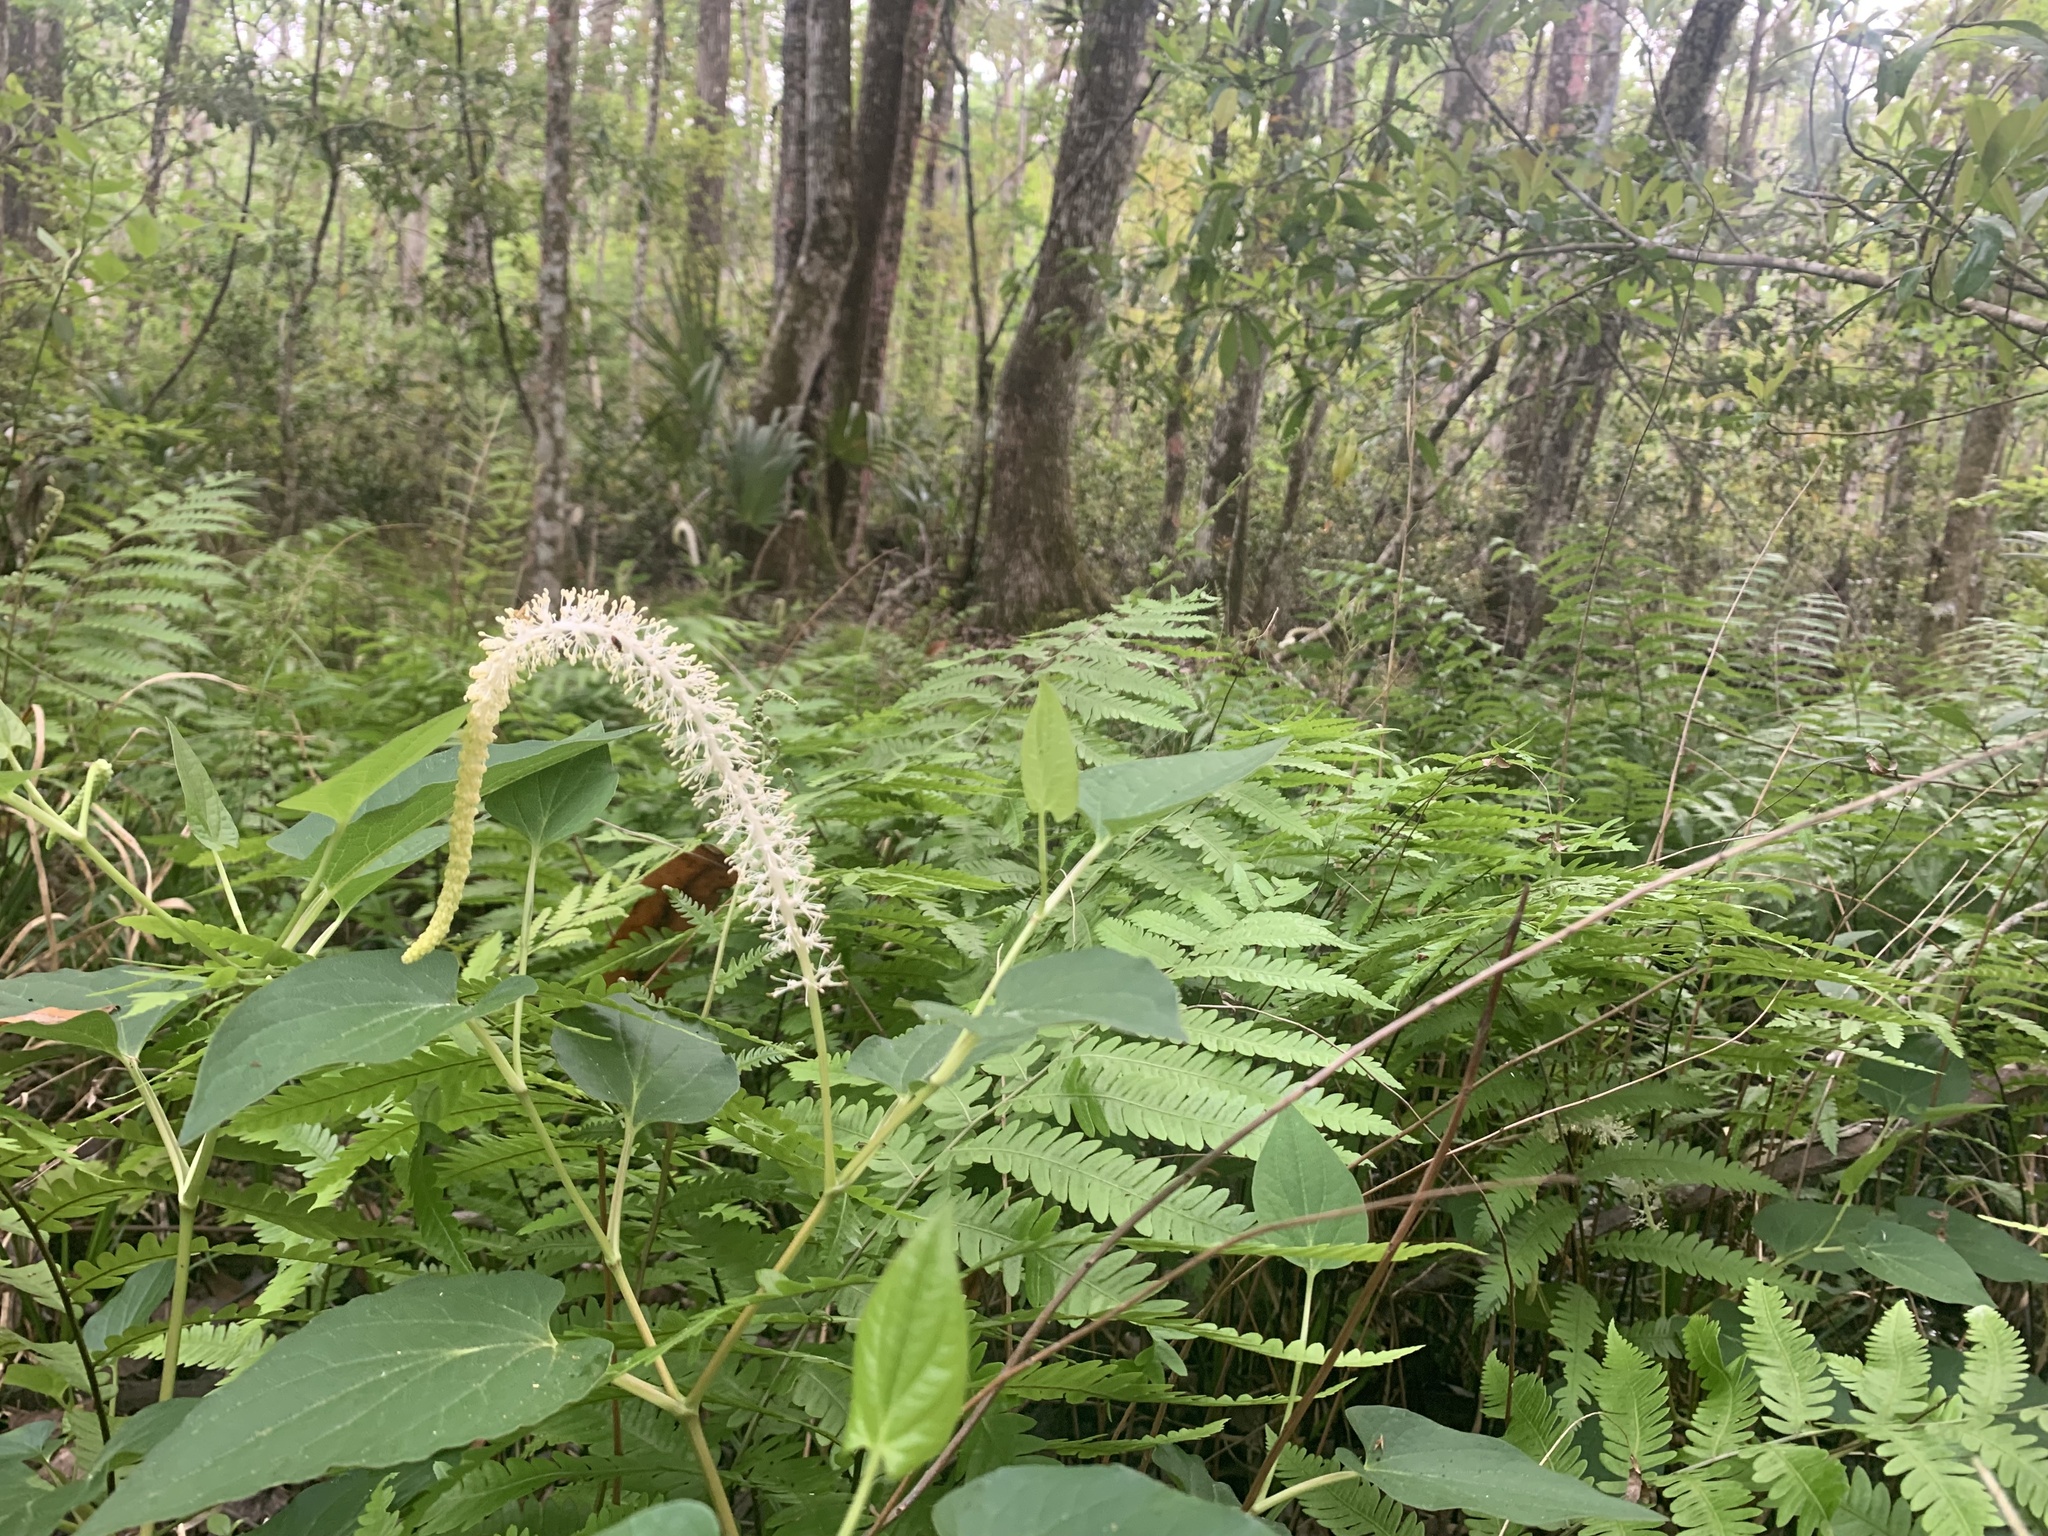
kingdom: Plantae
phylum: Tracheophyta
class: Magnoliopsida
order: Piperales
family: Saururaceae
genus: Saururus
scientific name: Saururus cernuus
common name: Lizard's-tail
